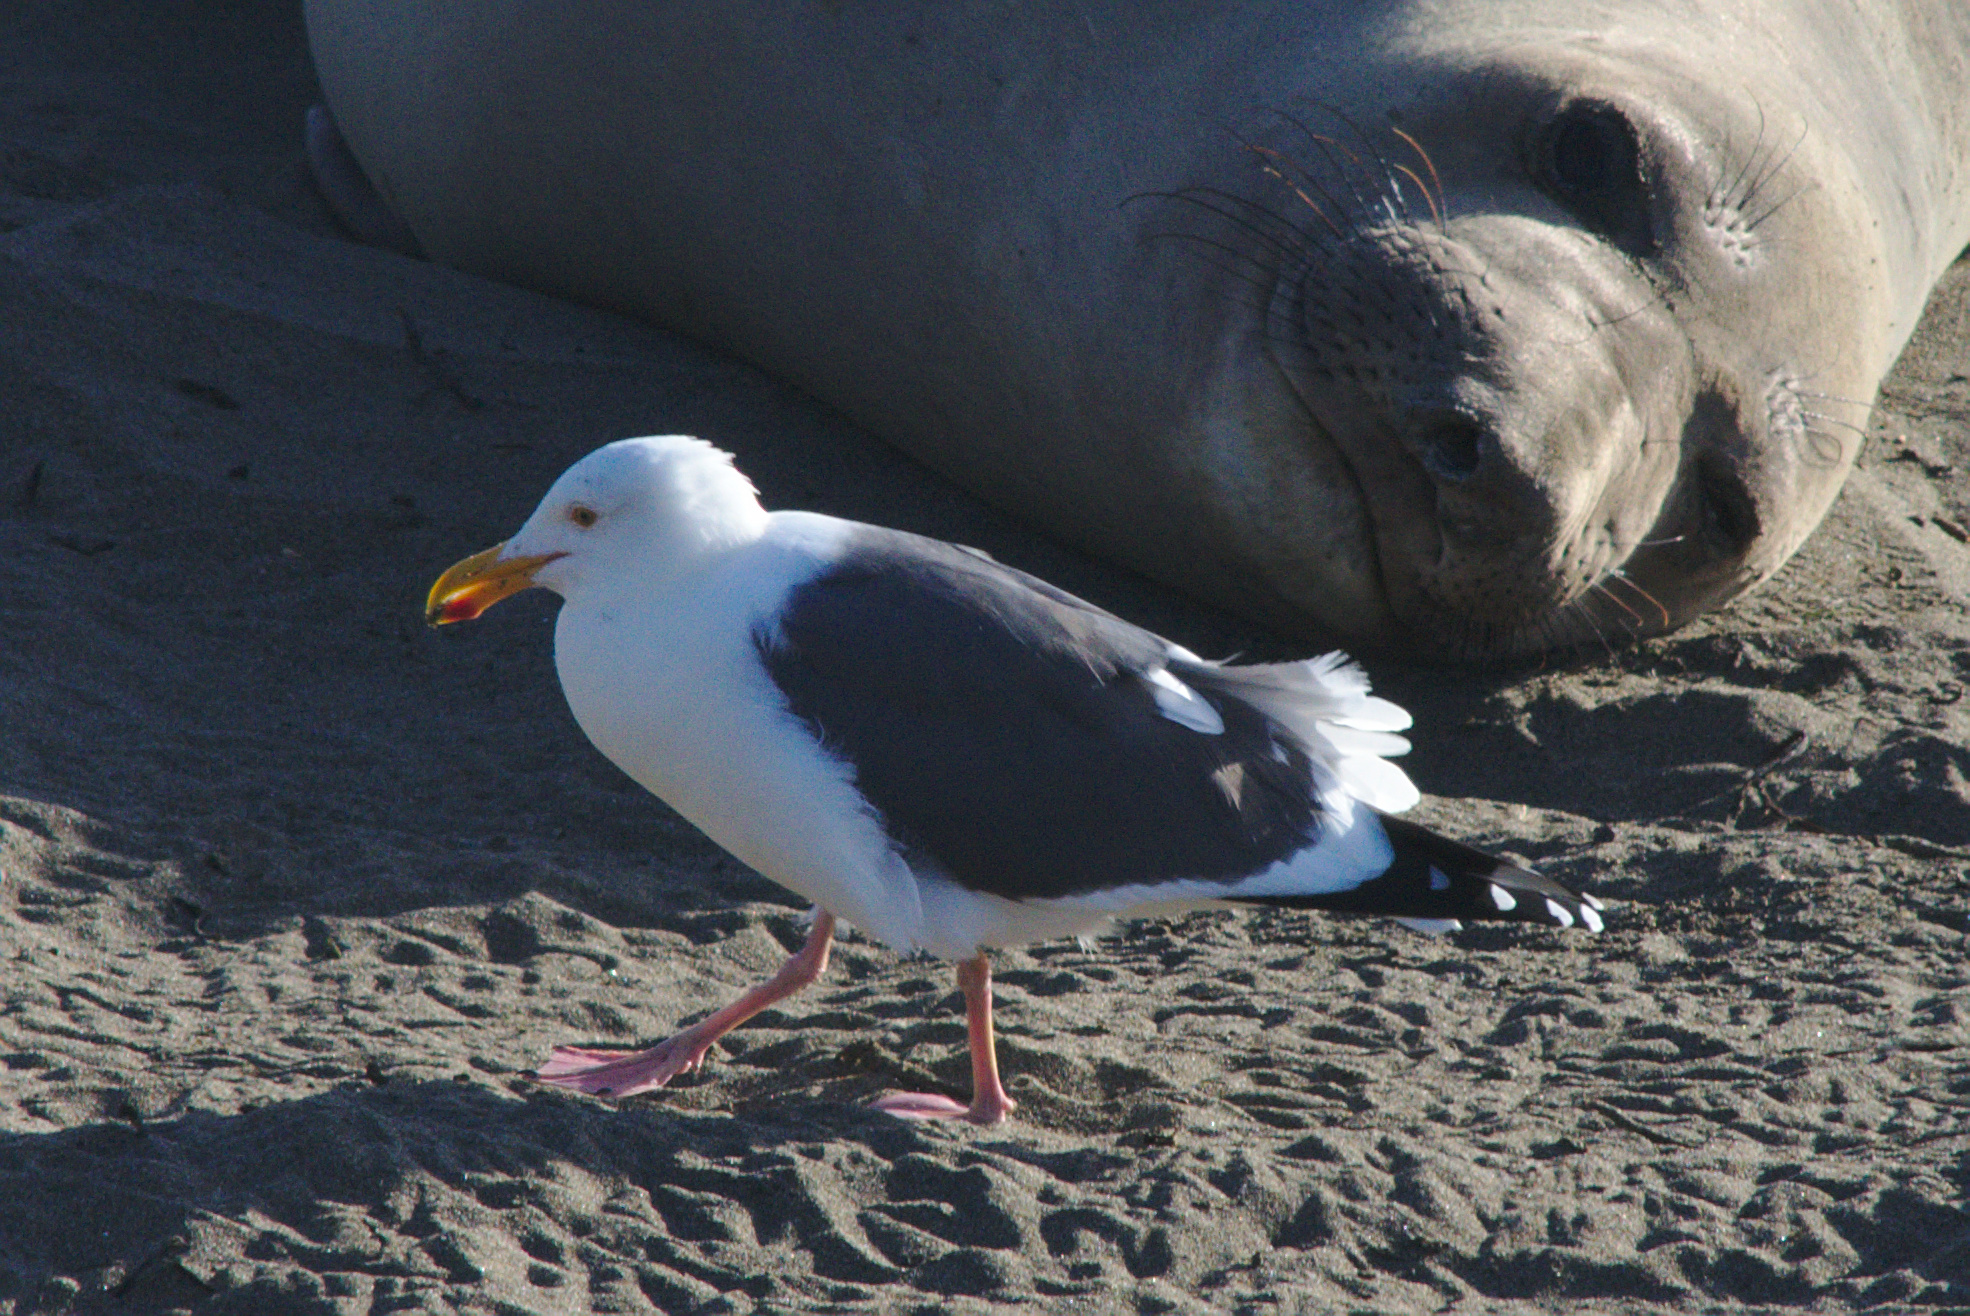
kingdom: Animalia
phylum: Chordata
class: Aves
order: Charadriiformes
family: Laridae
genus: Larus
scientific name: Larus occidentalis
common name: Western gull
